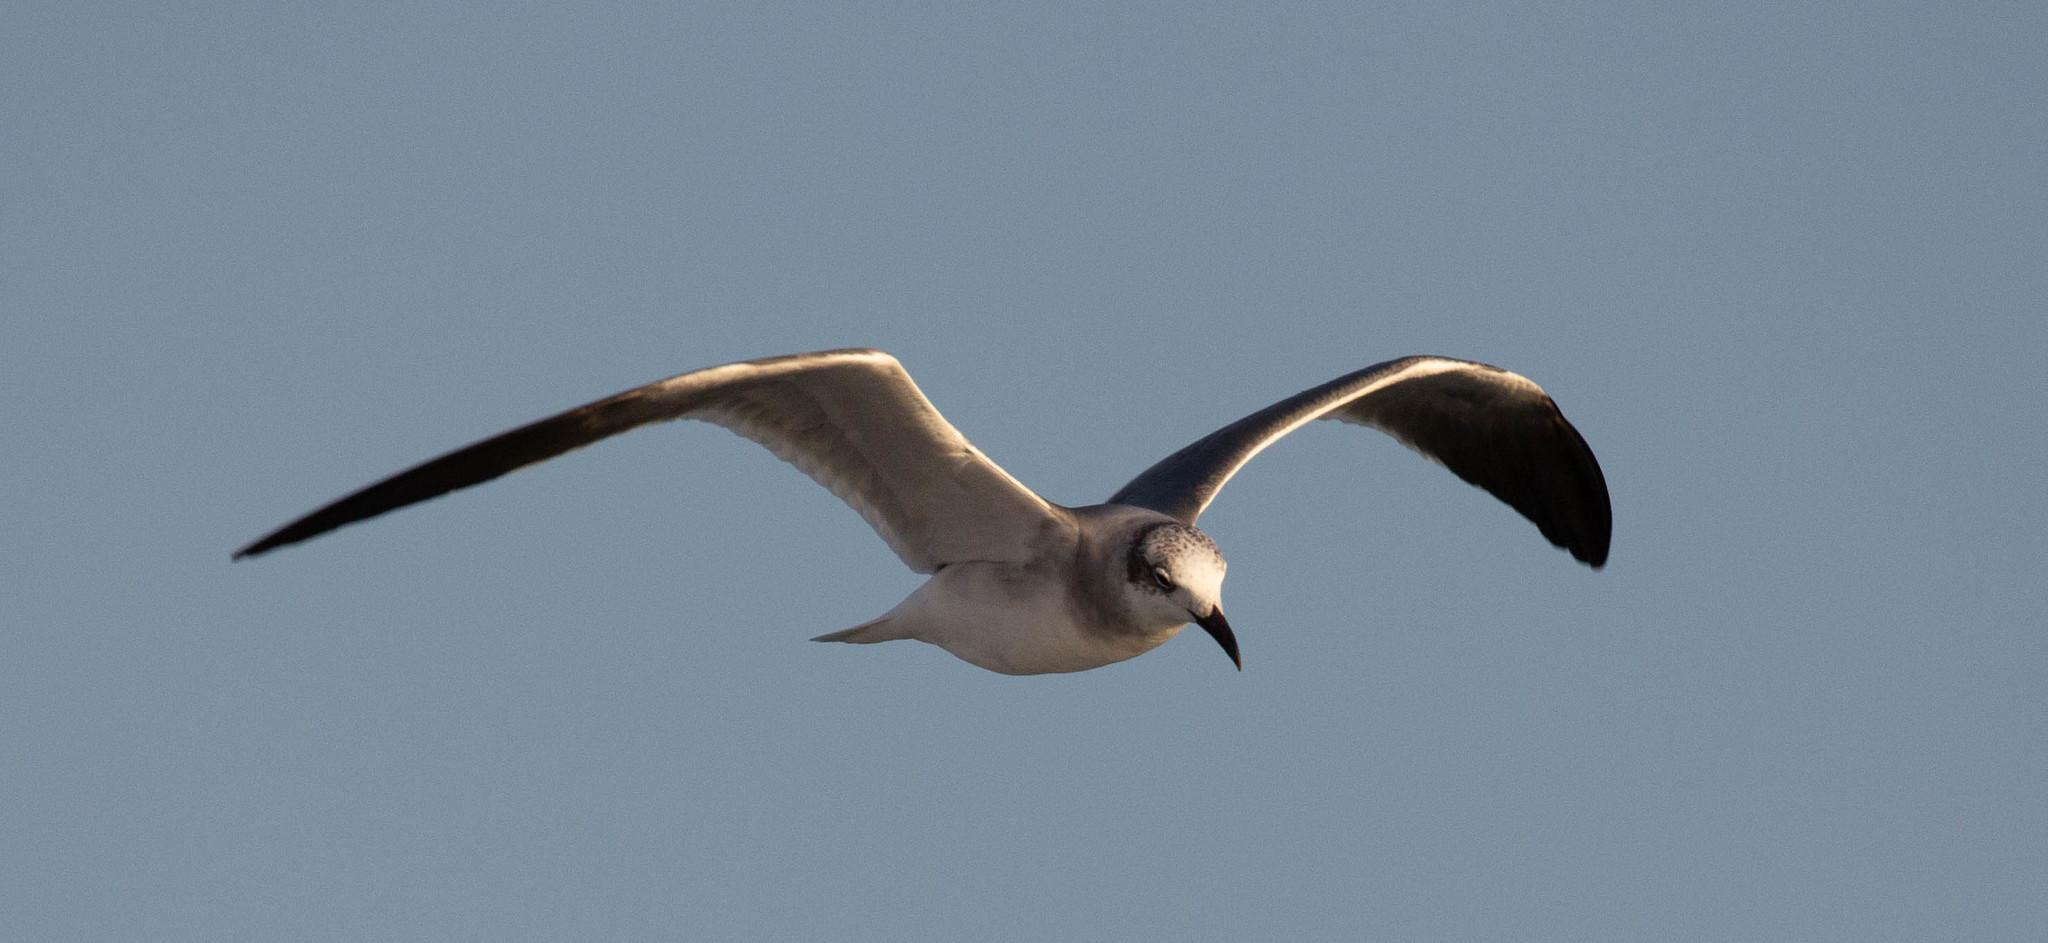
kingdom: Animalia
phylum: Chordata
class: Aves
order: Charadriiformes
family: Laridae
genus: Leucophaeus
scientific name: Leucophaeus atricilla
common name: Laughing gull
